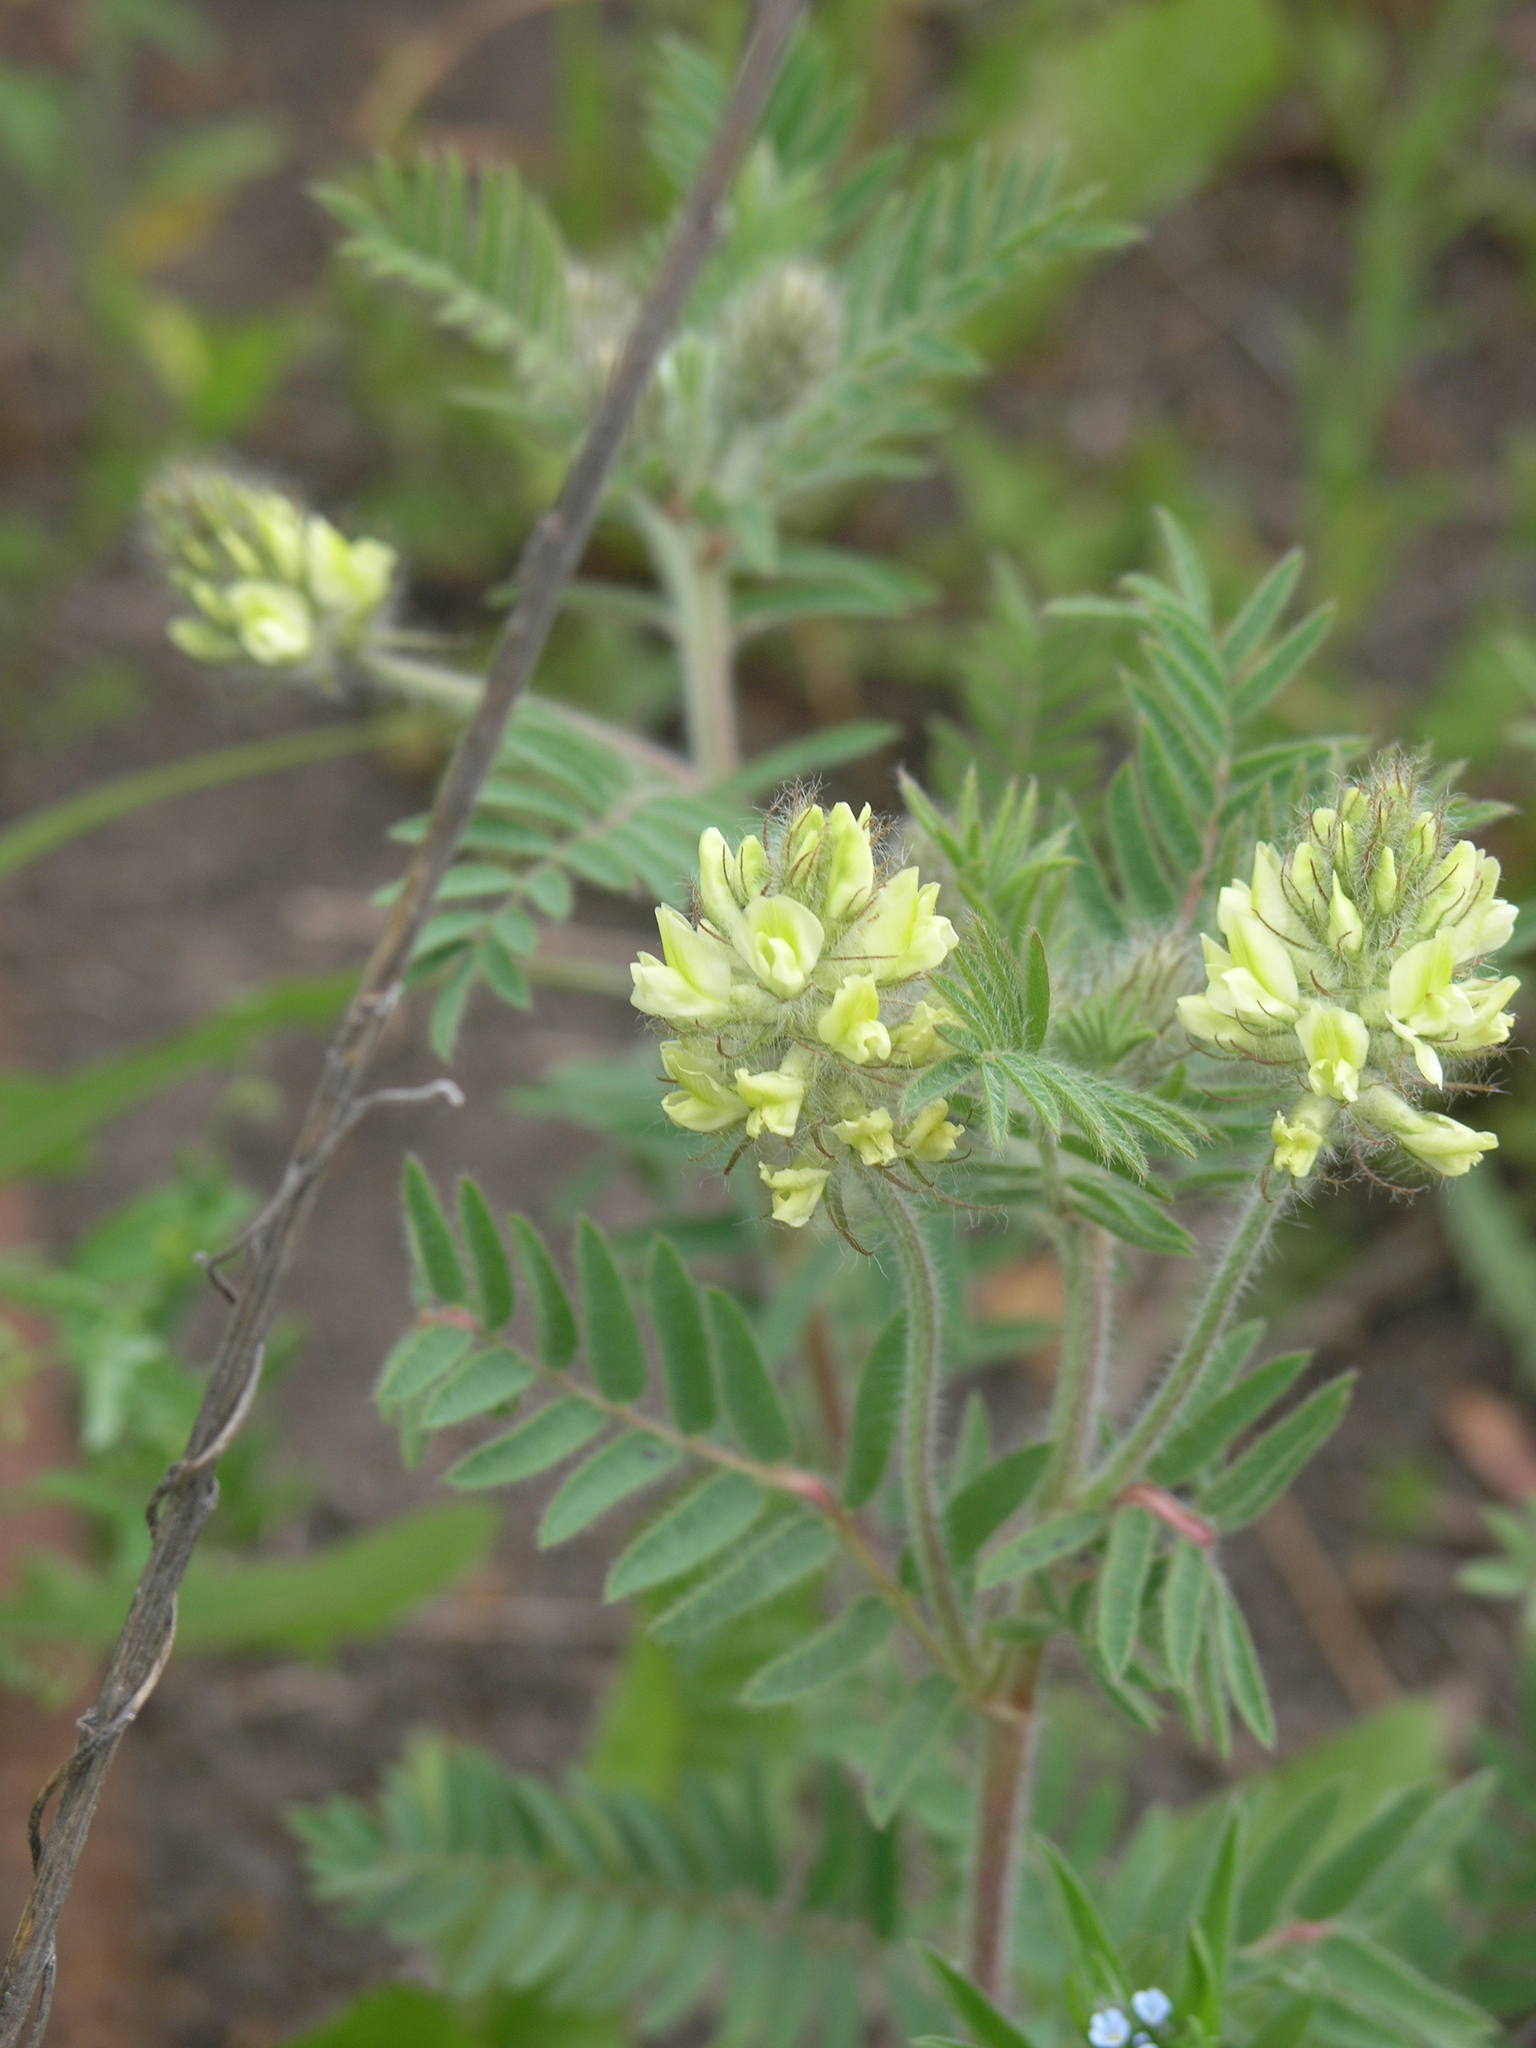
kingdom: Plantae
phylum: Tracheophyta
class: Magnoliopsida
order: Fabales
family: Fabaceae
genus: Oxytropis
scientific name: Oxytropis pilosa
